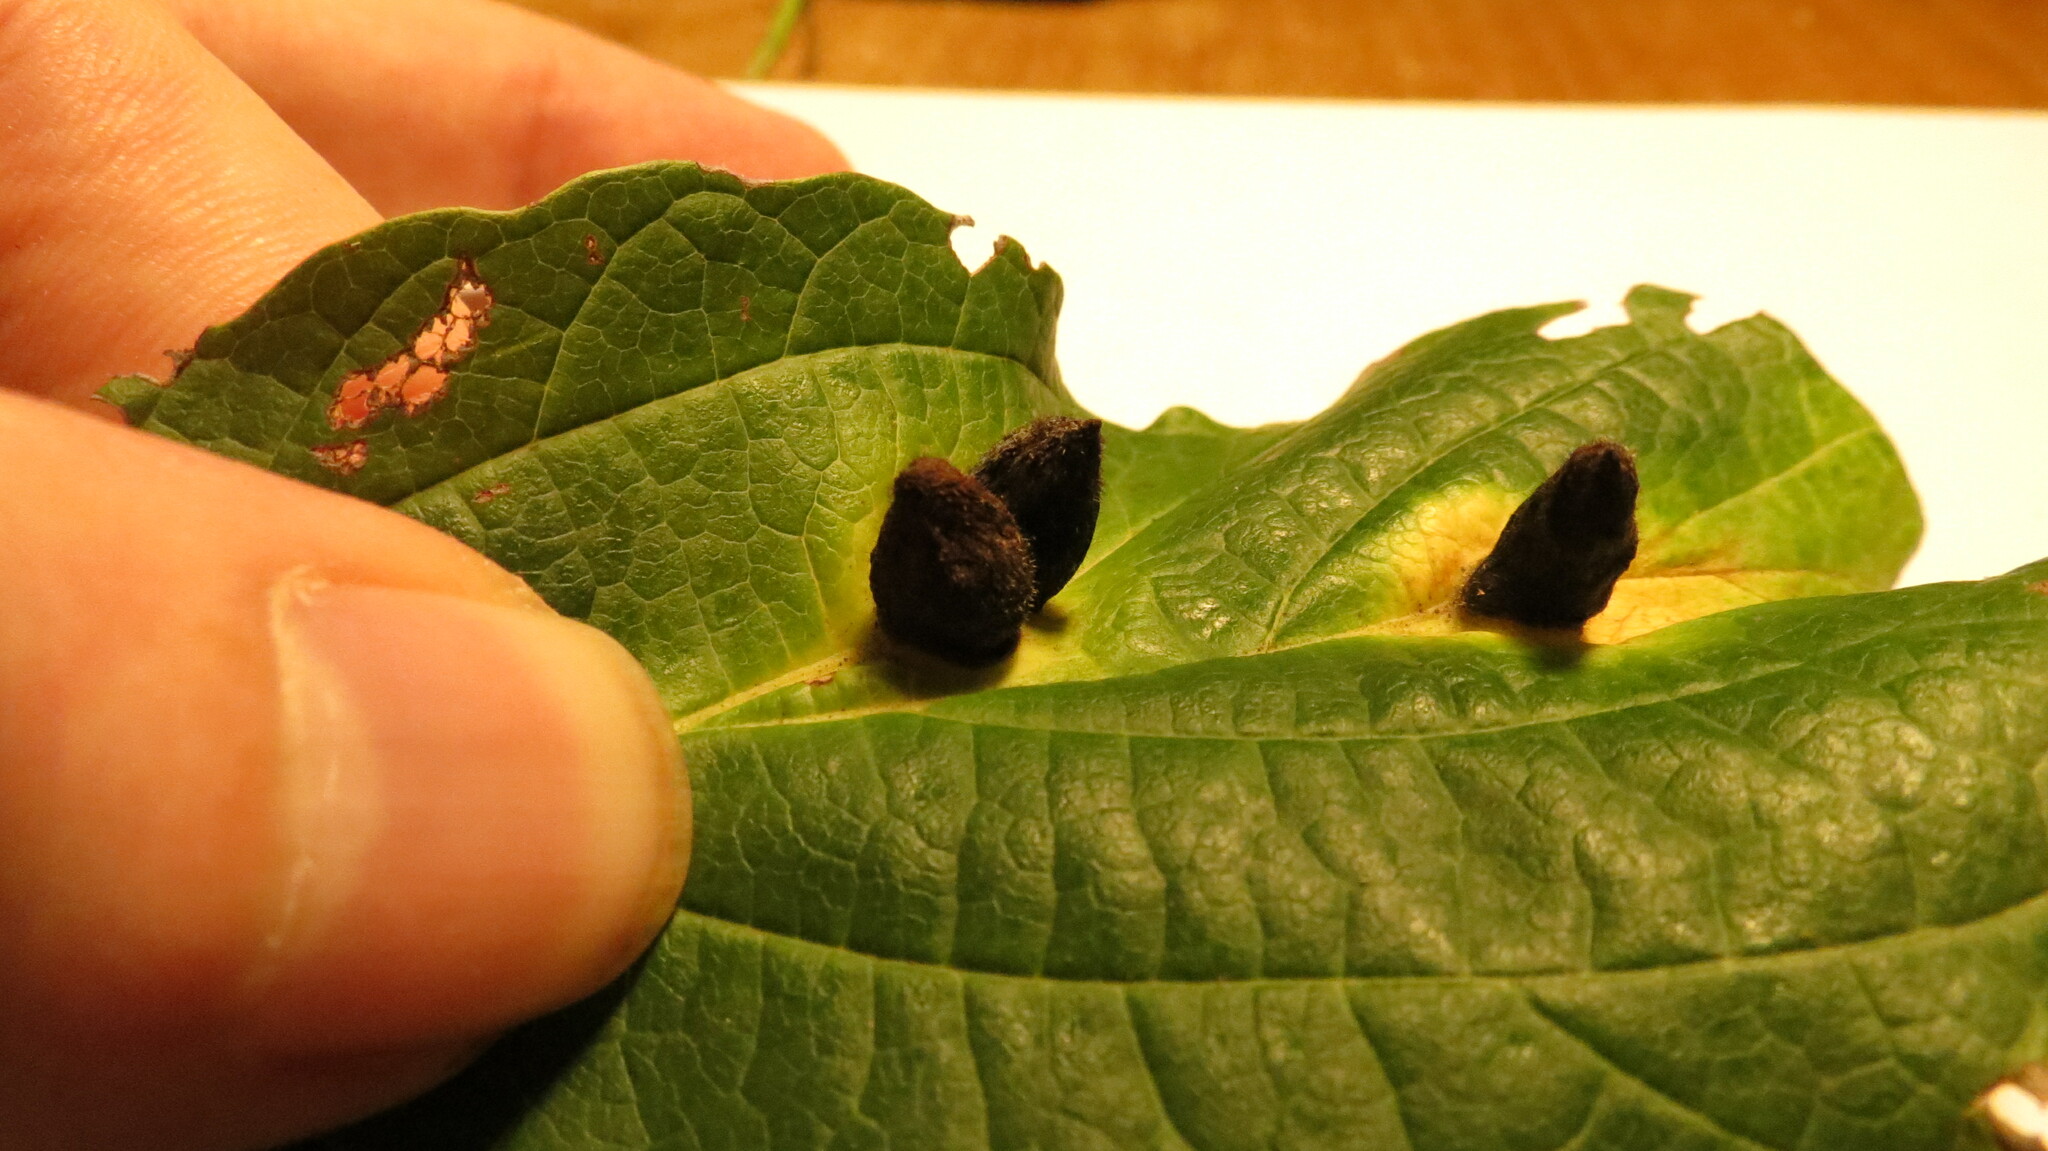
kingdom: Animalia
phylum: Arthropoda
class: Insecta
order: Hemiptera
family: Aphididae
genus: Hormaphis
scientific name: Hormaphis hamamelidis
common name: Witch-hazel cone gall aphid
